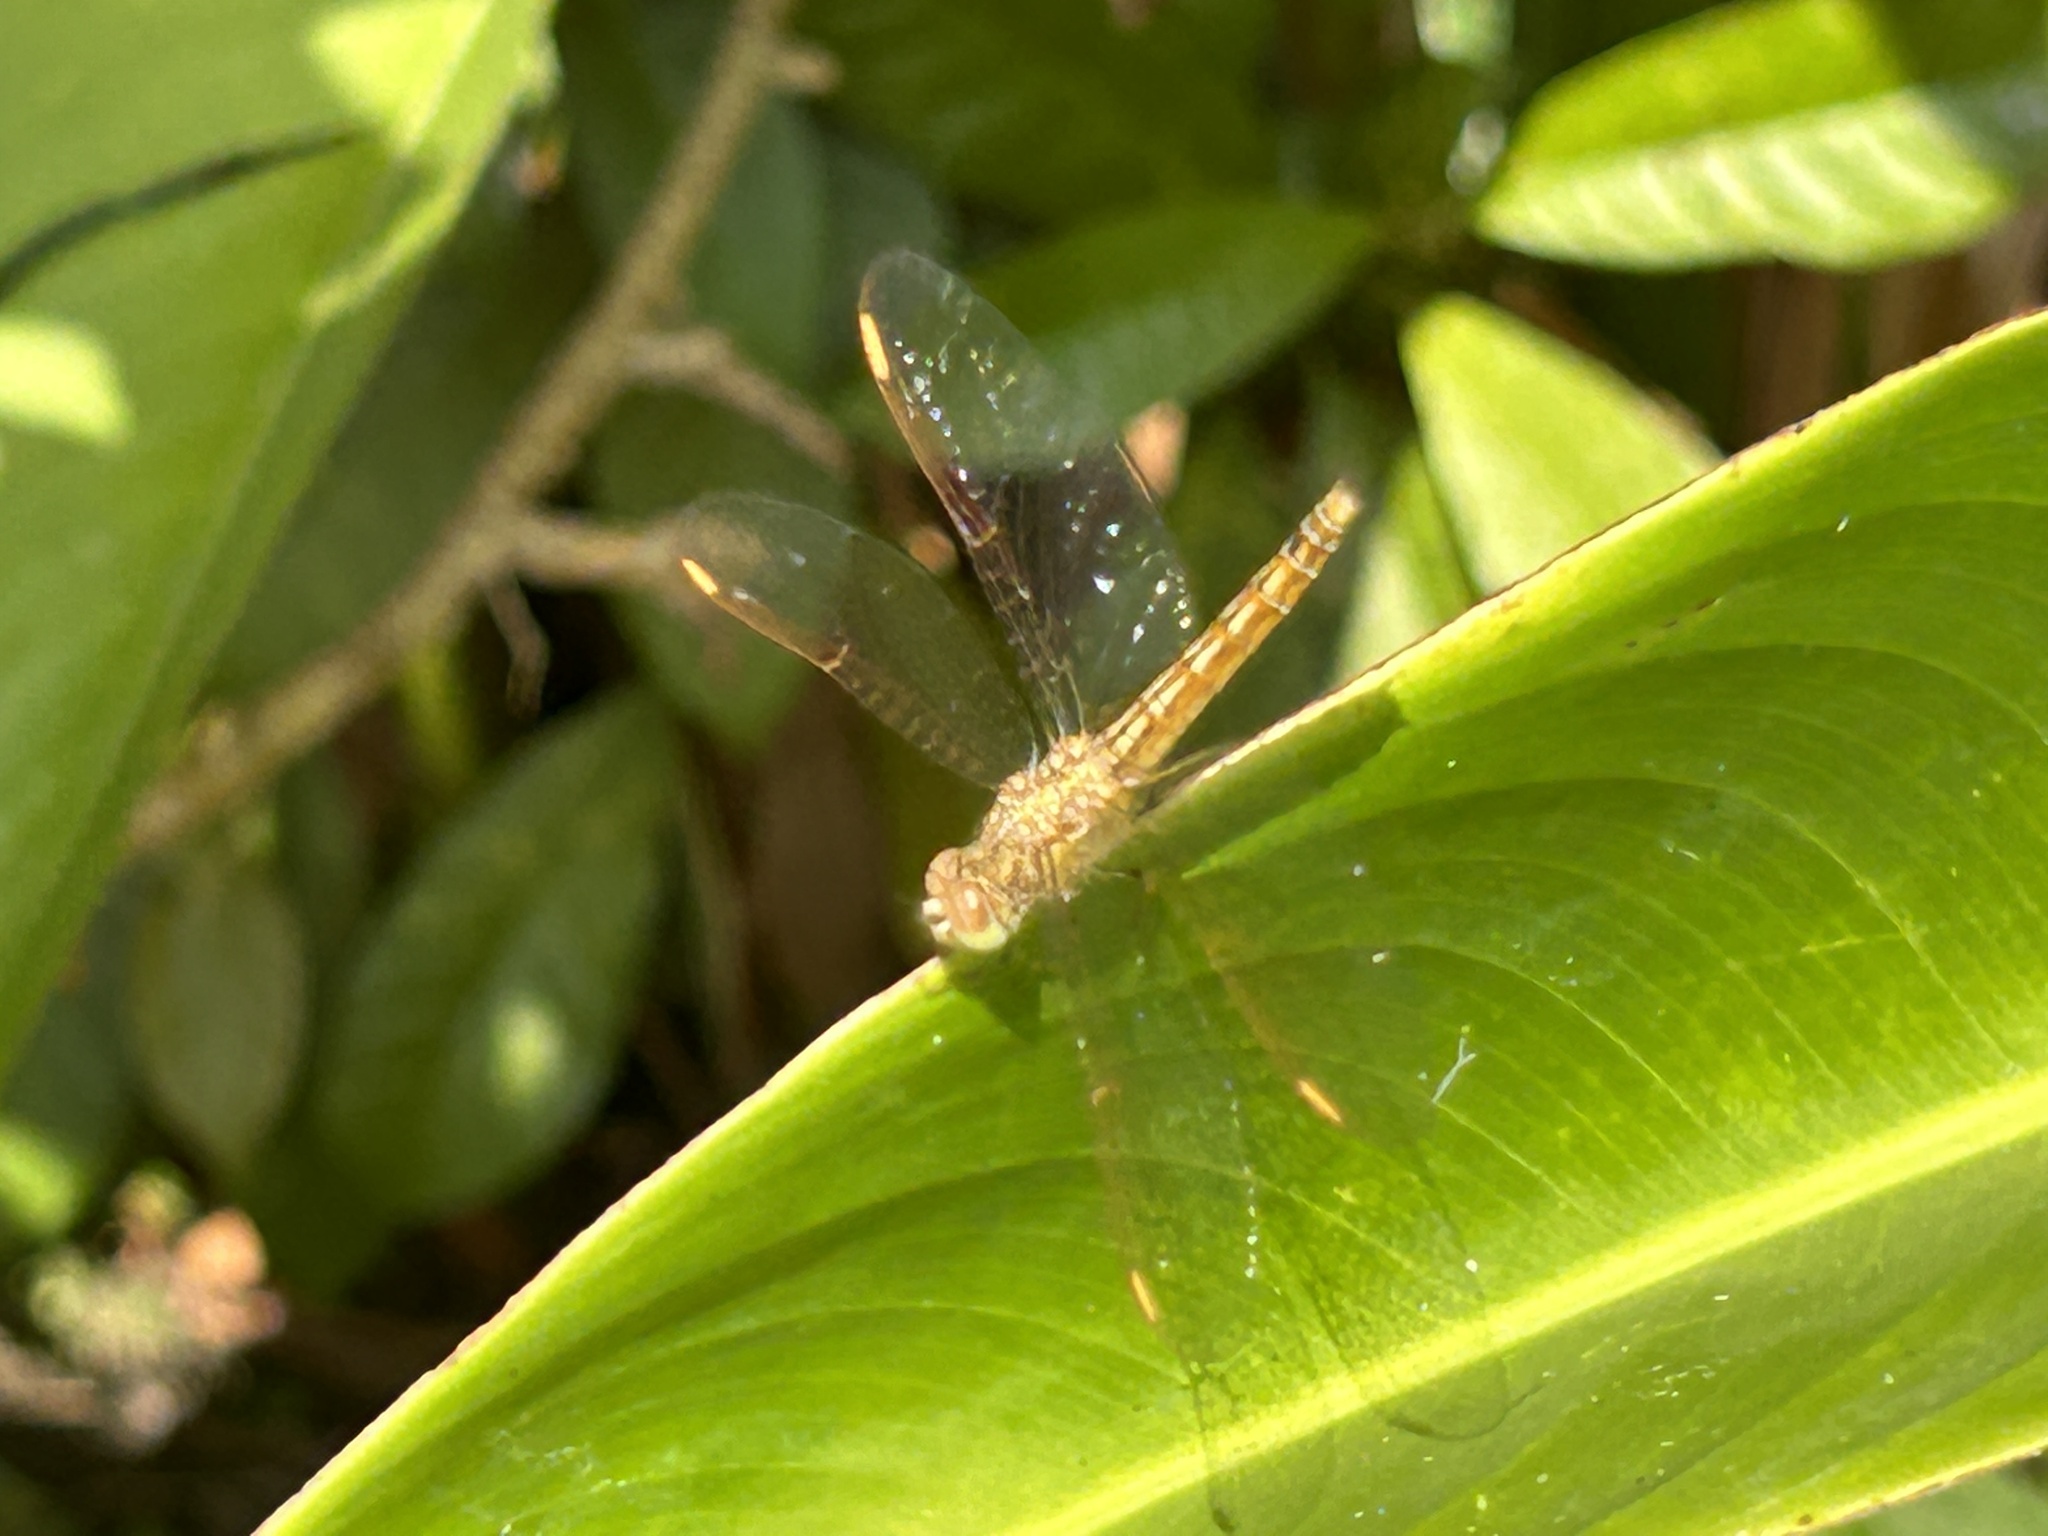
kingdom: Animalia
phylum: Arthropoda
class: Insecta
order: Odonata
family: Libellulidae
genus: Brachythemis
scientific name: Brachythemis contaminata
